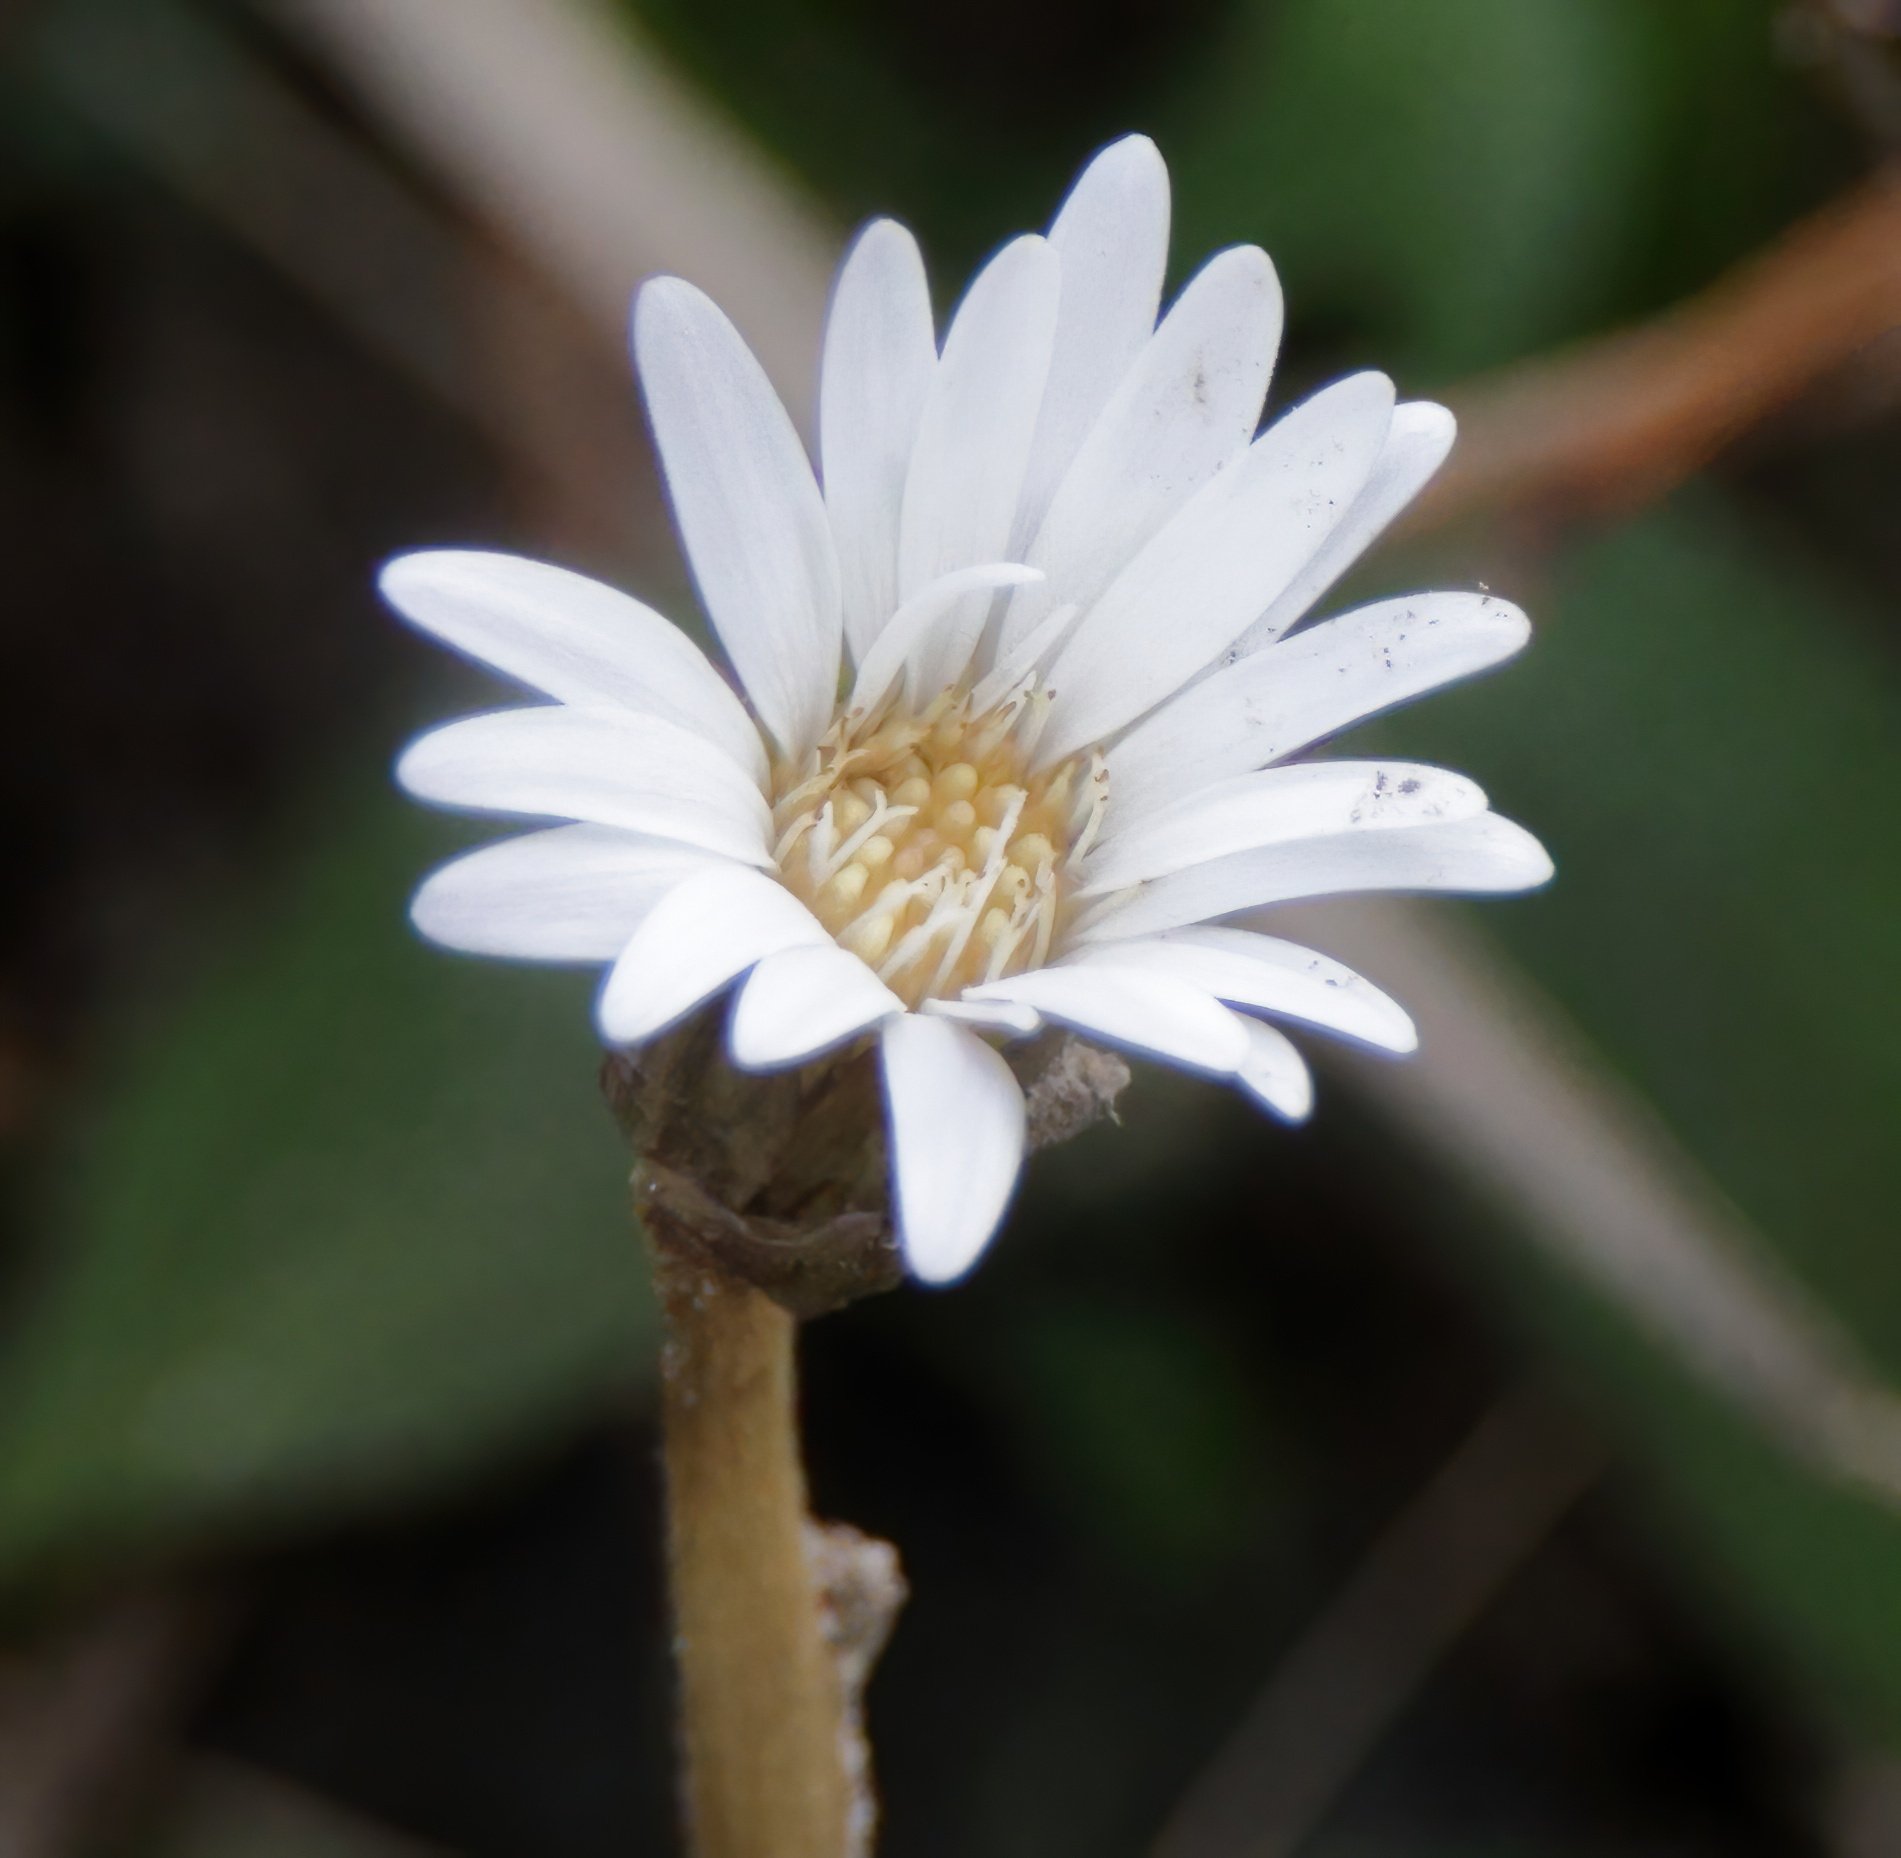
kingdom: Plantae
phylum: Tracheophyta
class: Magnoliopsida
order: Asterales
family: Asteraceae
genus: Chaptalia
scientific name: Chaptalia tomentosa
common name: Woolly sunbonnet
